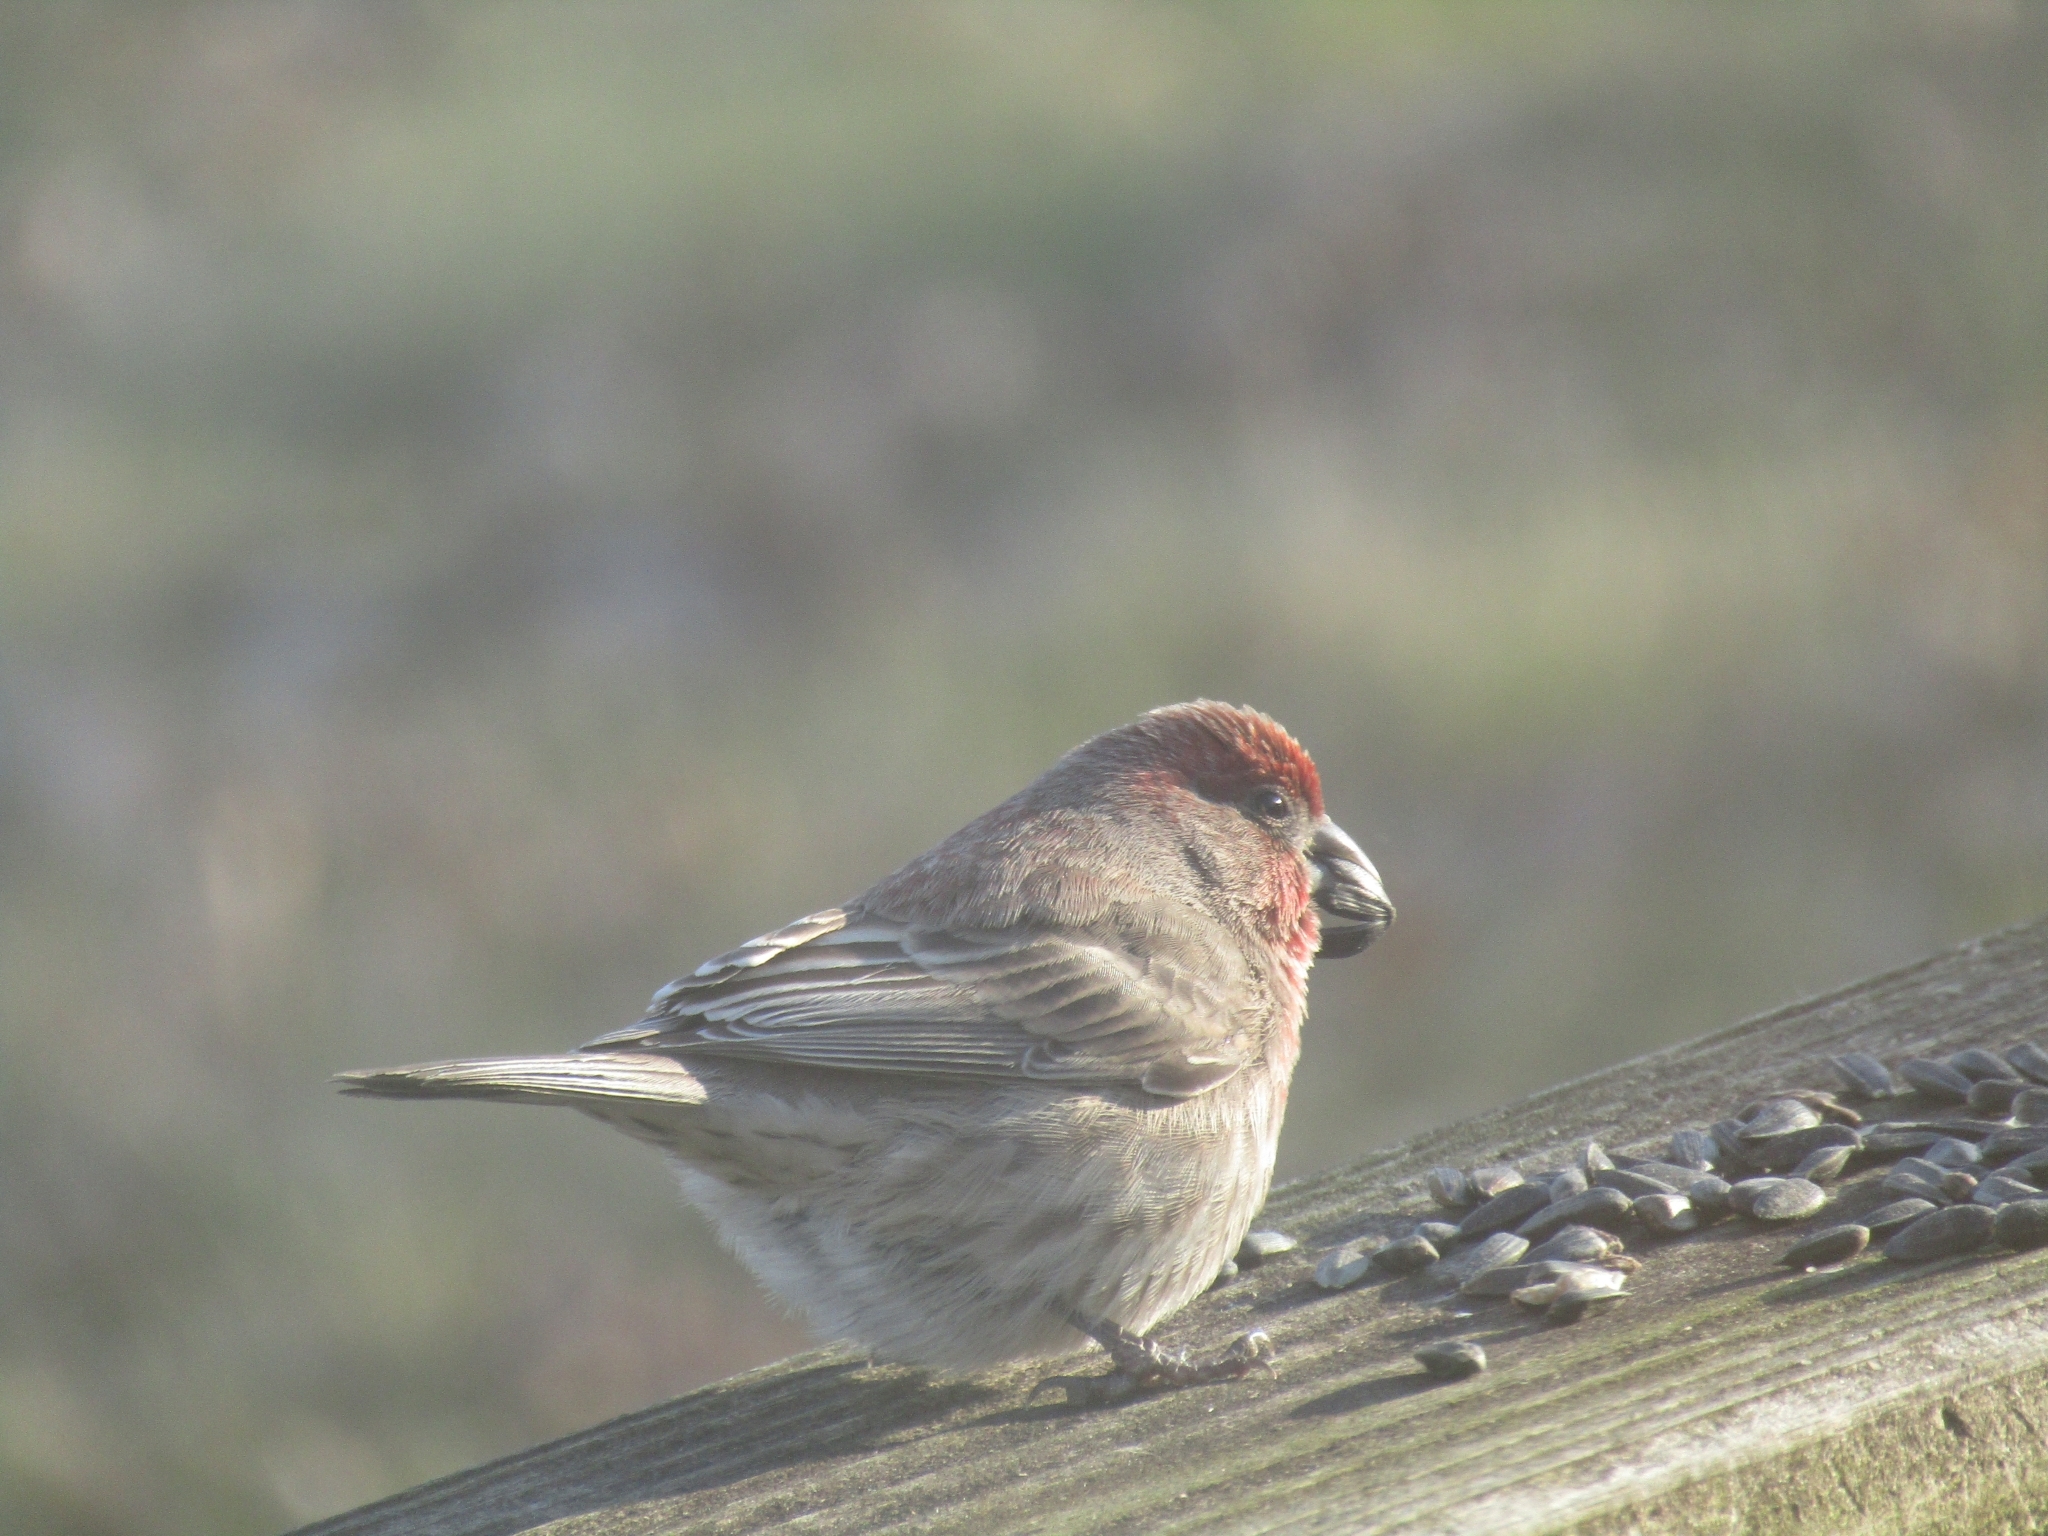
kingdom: Animalia
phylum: Chordata
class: Aves
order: Passeriformes
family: Fringillidae
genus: Haemorhous
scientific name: Haemorhous mexicanus
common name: House finch
